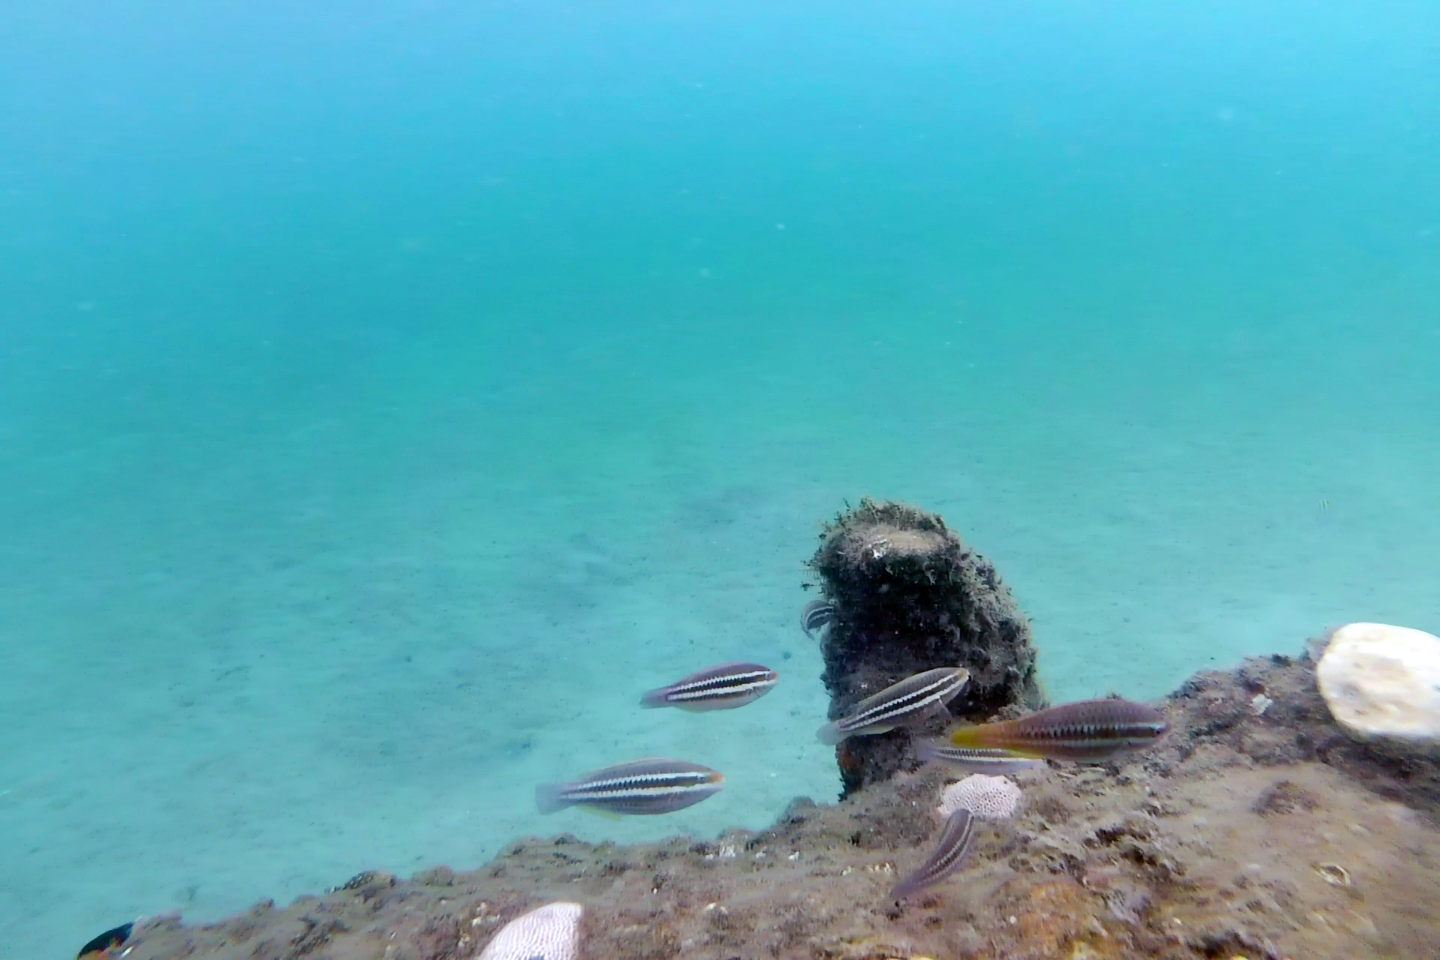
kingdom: Animalia
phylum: Chordata
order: Perciformes
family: Scaridae
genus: Scarus
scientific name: Scarus iseri
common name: Striped parrotfish
